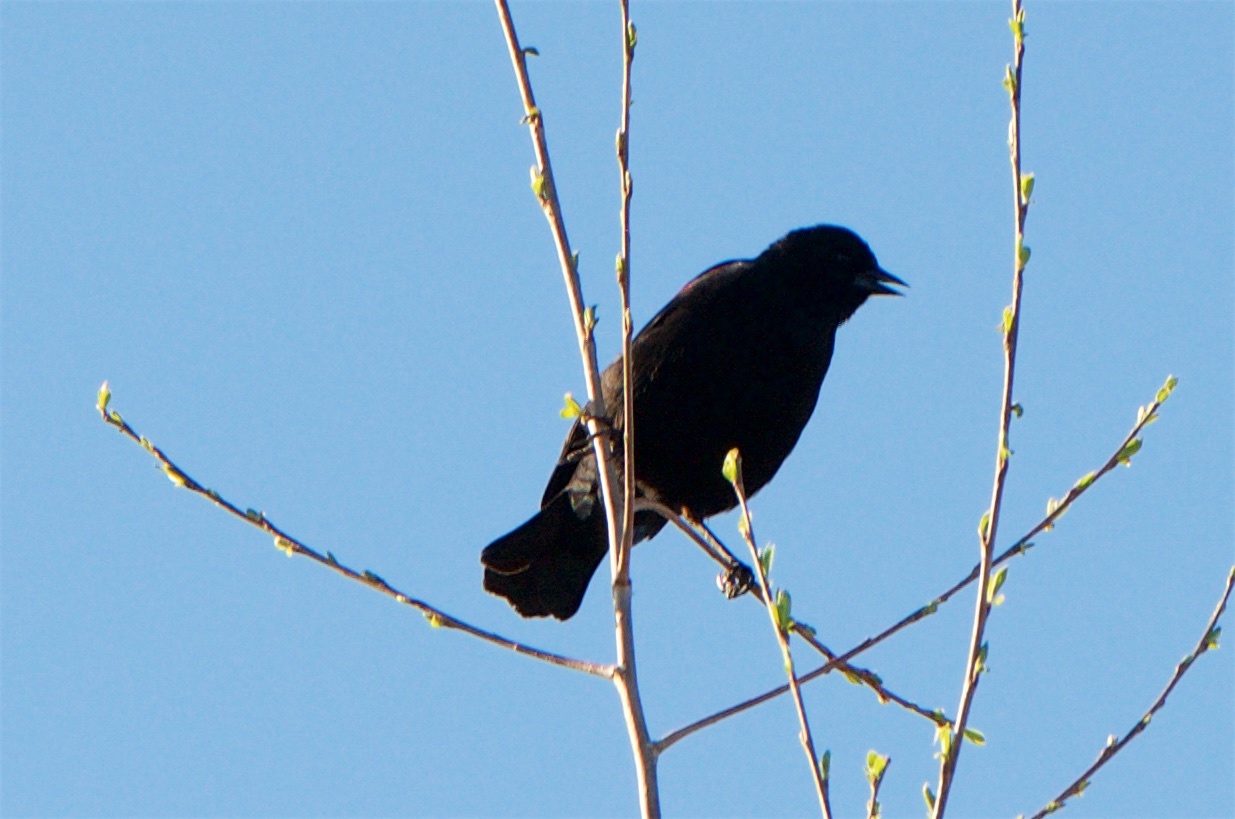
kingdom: Animalia
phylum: Chordata
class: Aves
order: Passeriformes
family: Icteridae
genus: Agelaius
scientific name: Agelaius phoeniceus
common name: Red-winged blackbird
